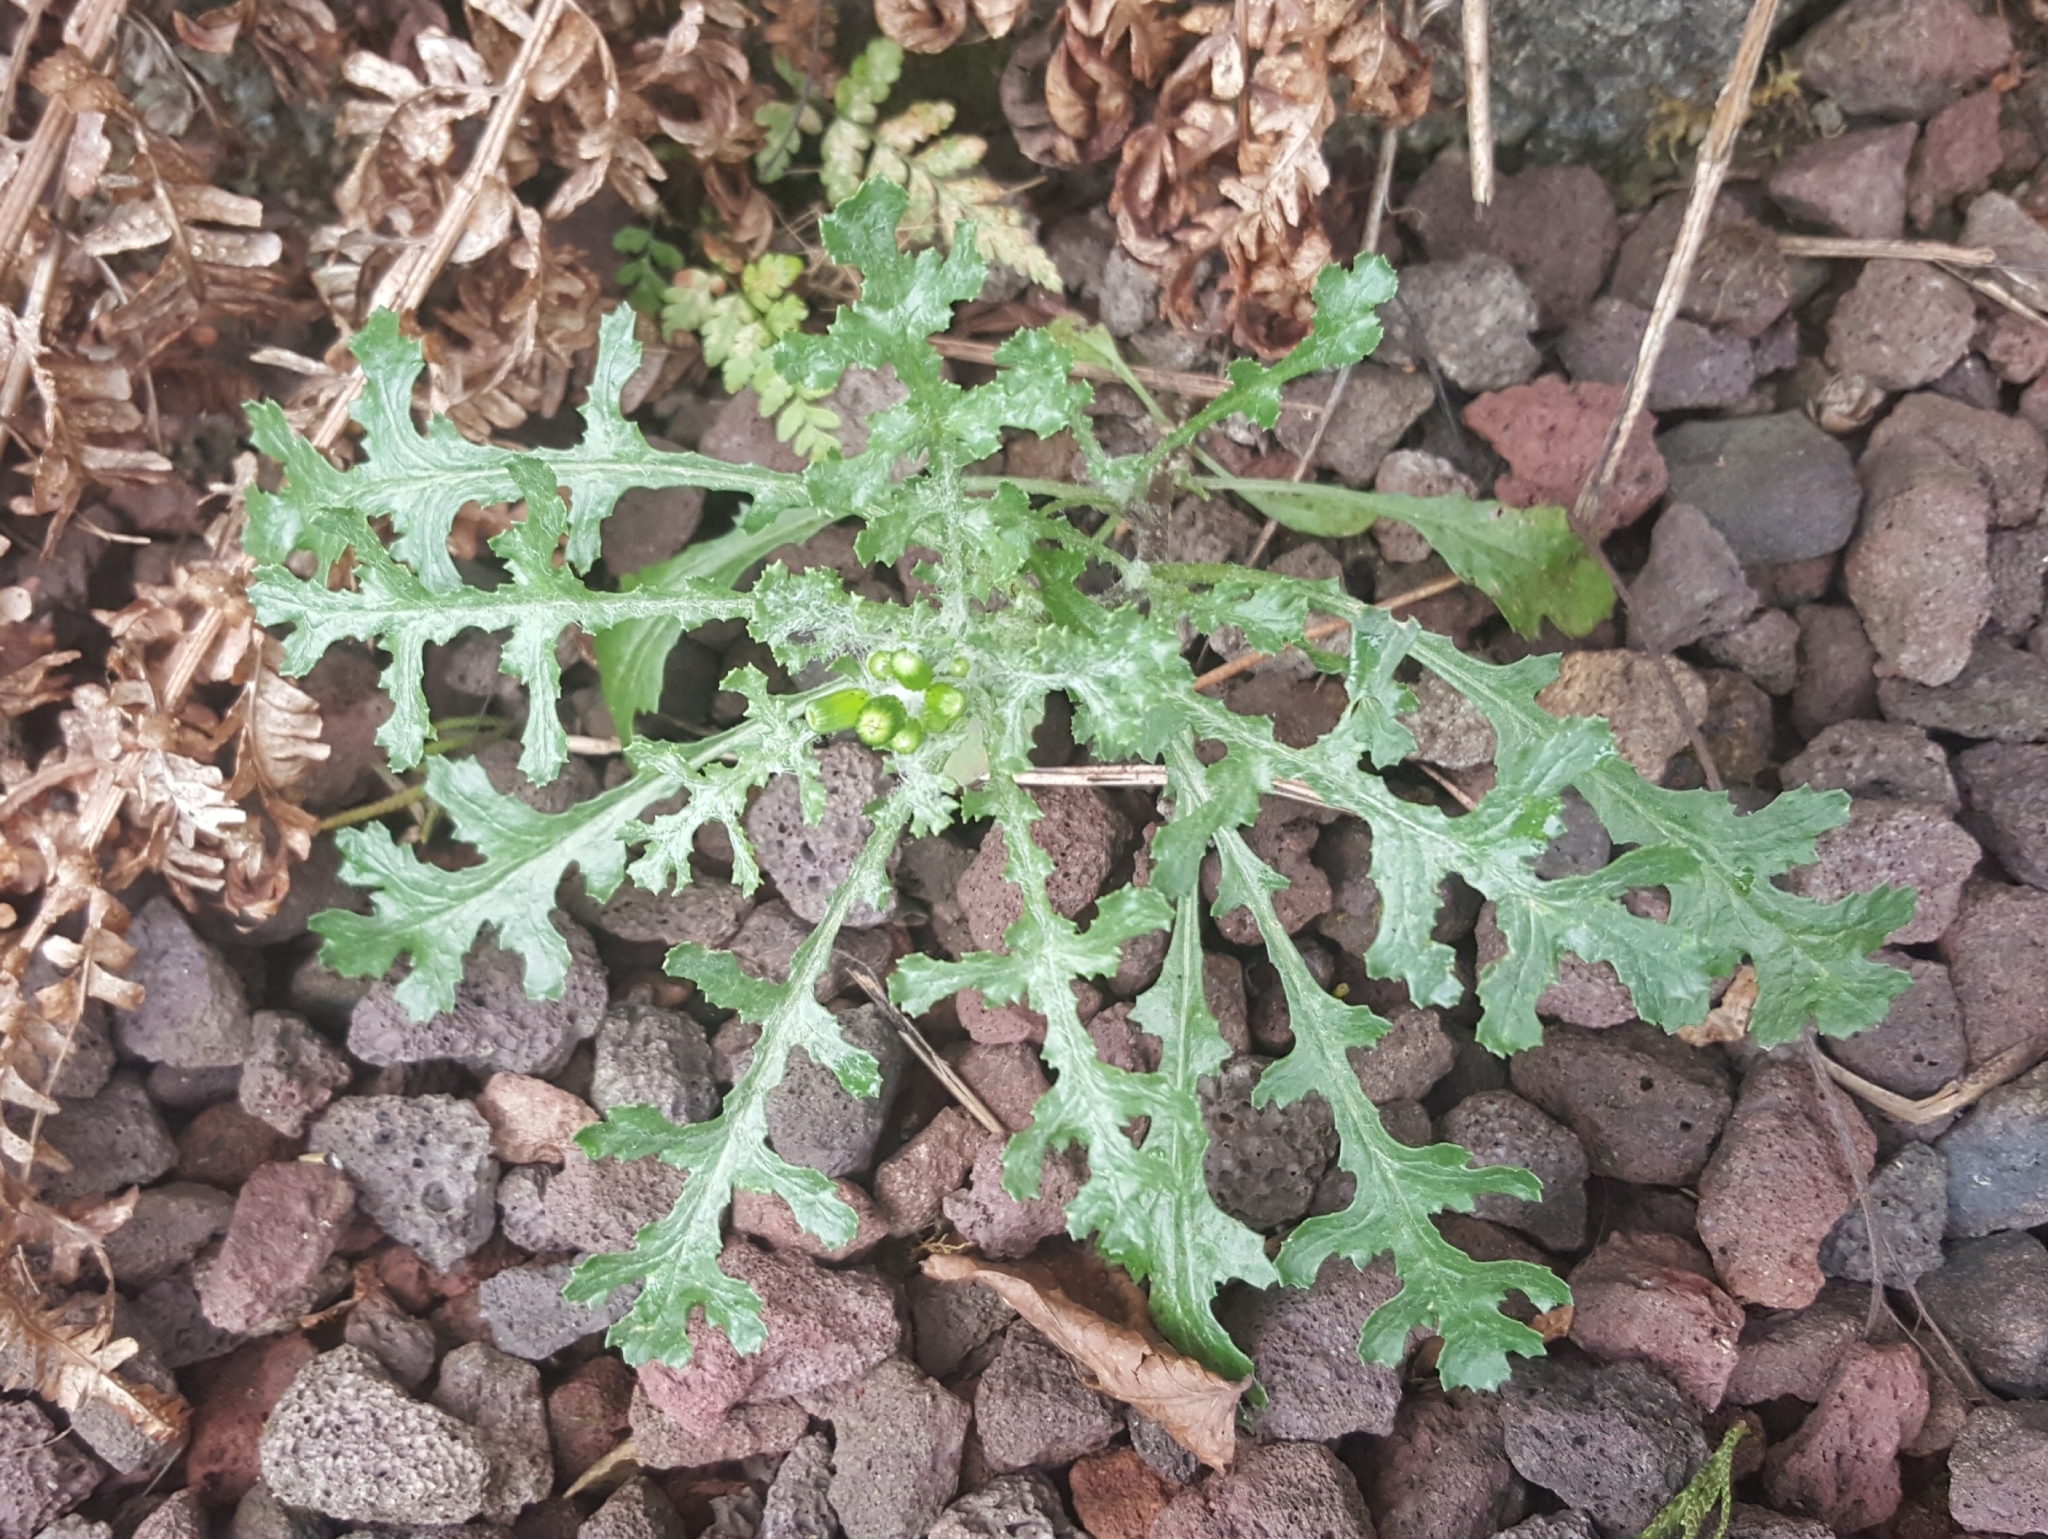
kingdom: Plantae
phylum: Tracheophyta
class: Magnoliopsida
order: Asterales
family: Asteraceae
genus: Senecio
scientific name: Senecio vulgaris
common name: Old-man-in-the-spring
